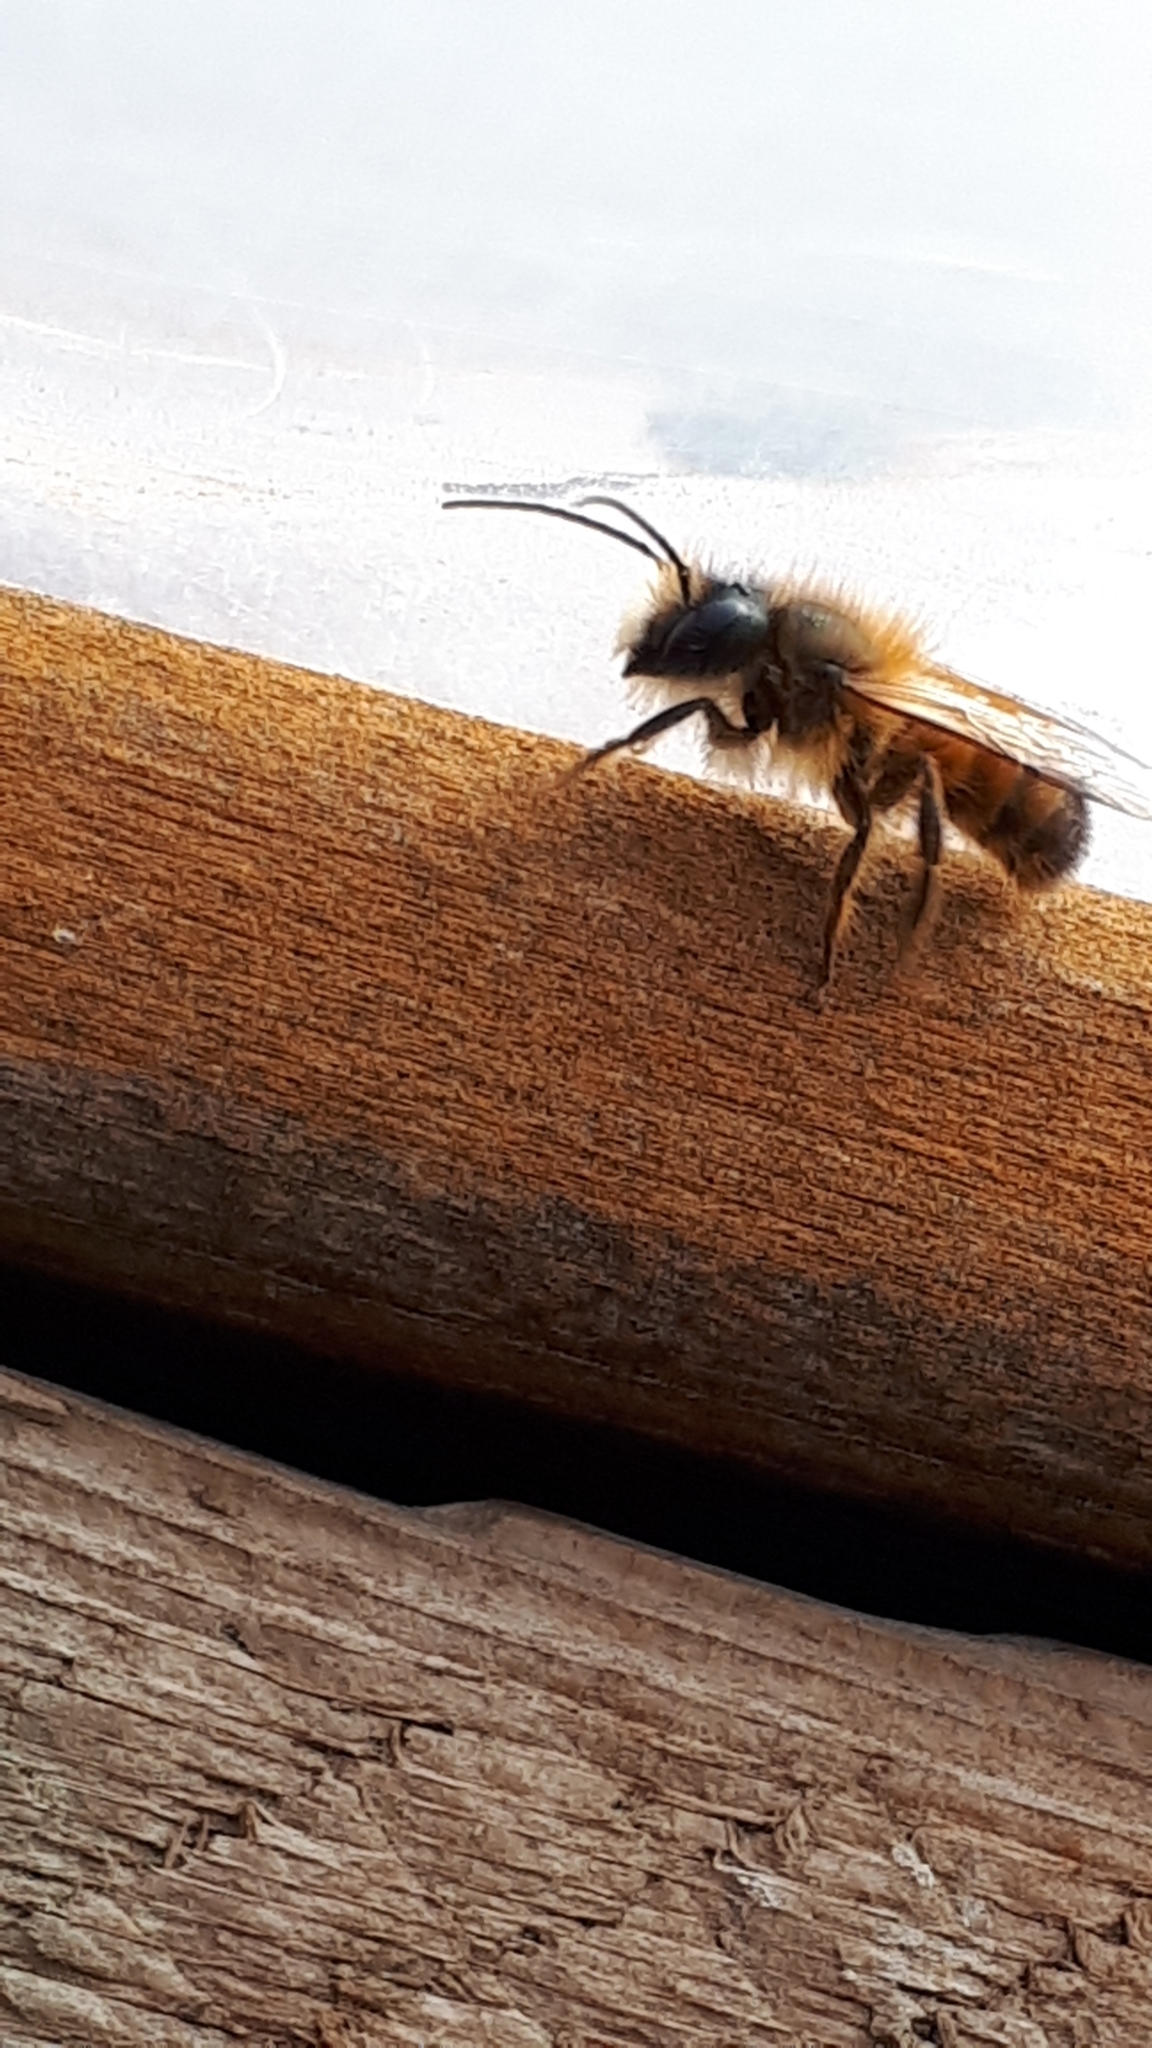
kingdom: Animalia
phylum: Arthropoda
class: Insecta
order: Hymenoptera
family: Megachilidae
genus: Osmia
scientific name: Osmia bicornis
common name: Red mason bee
